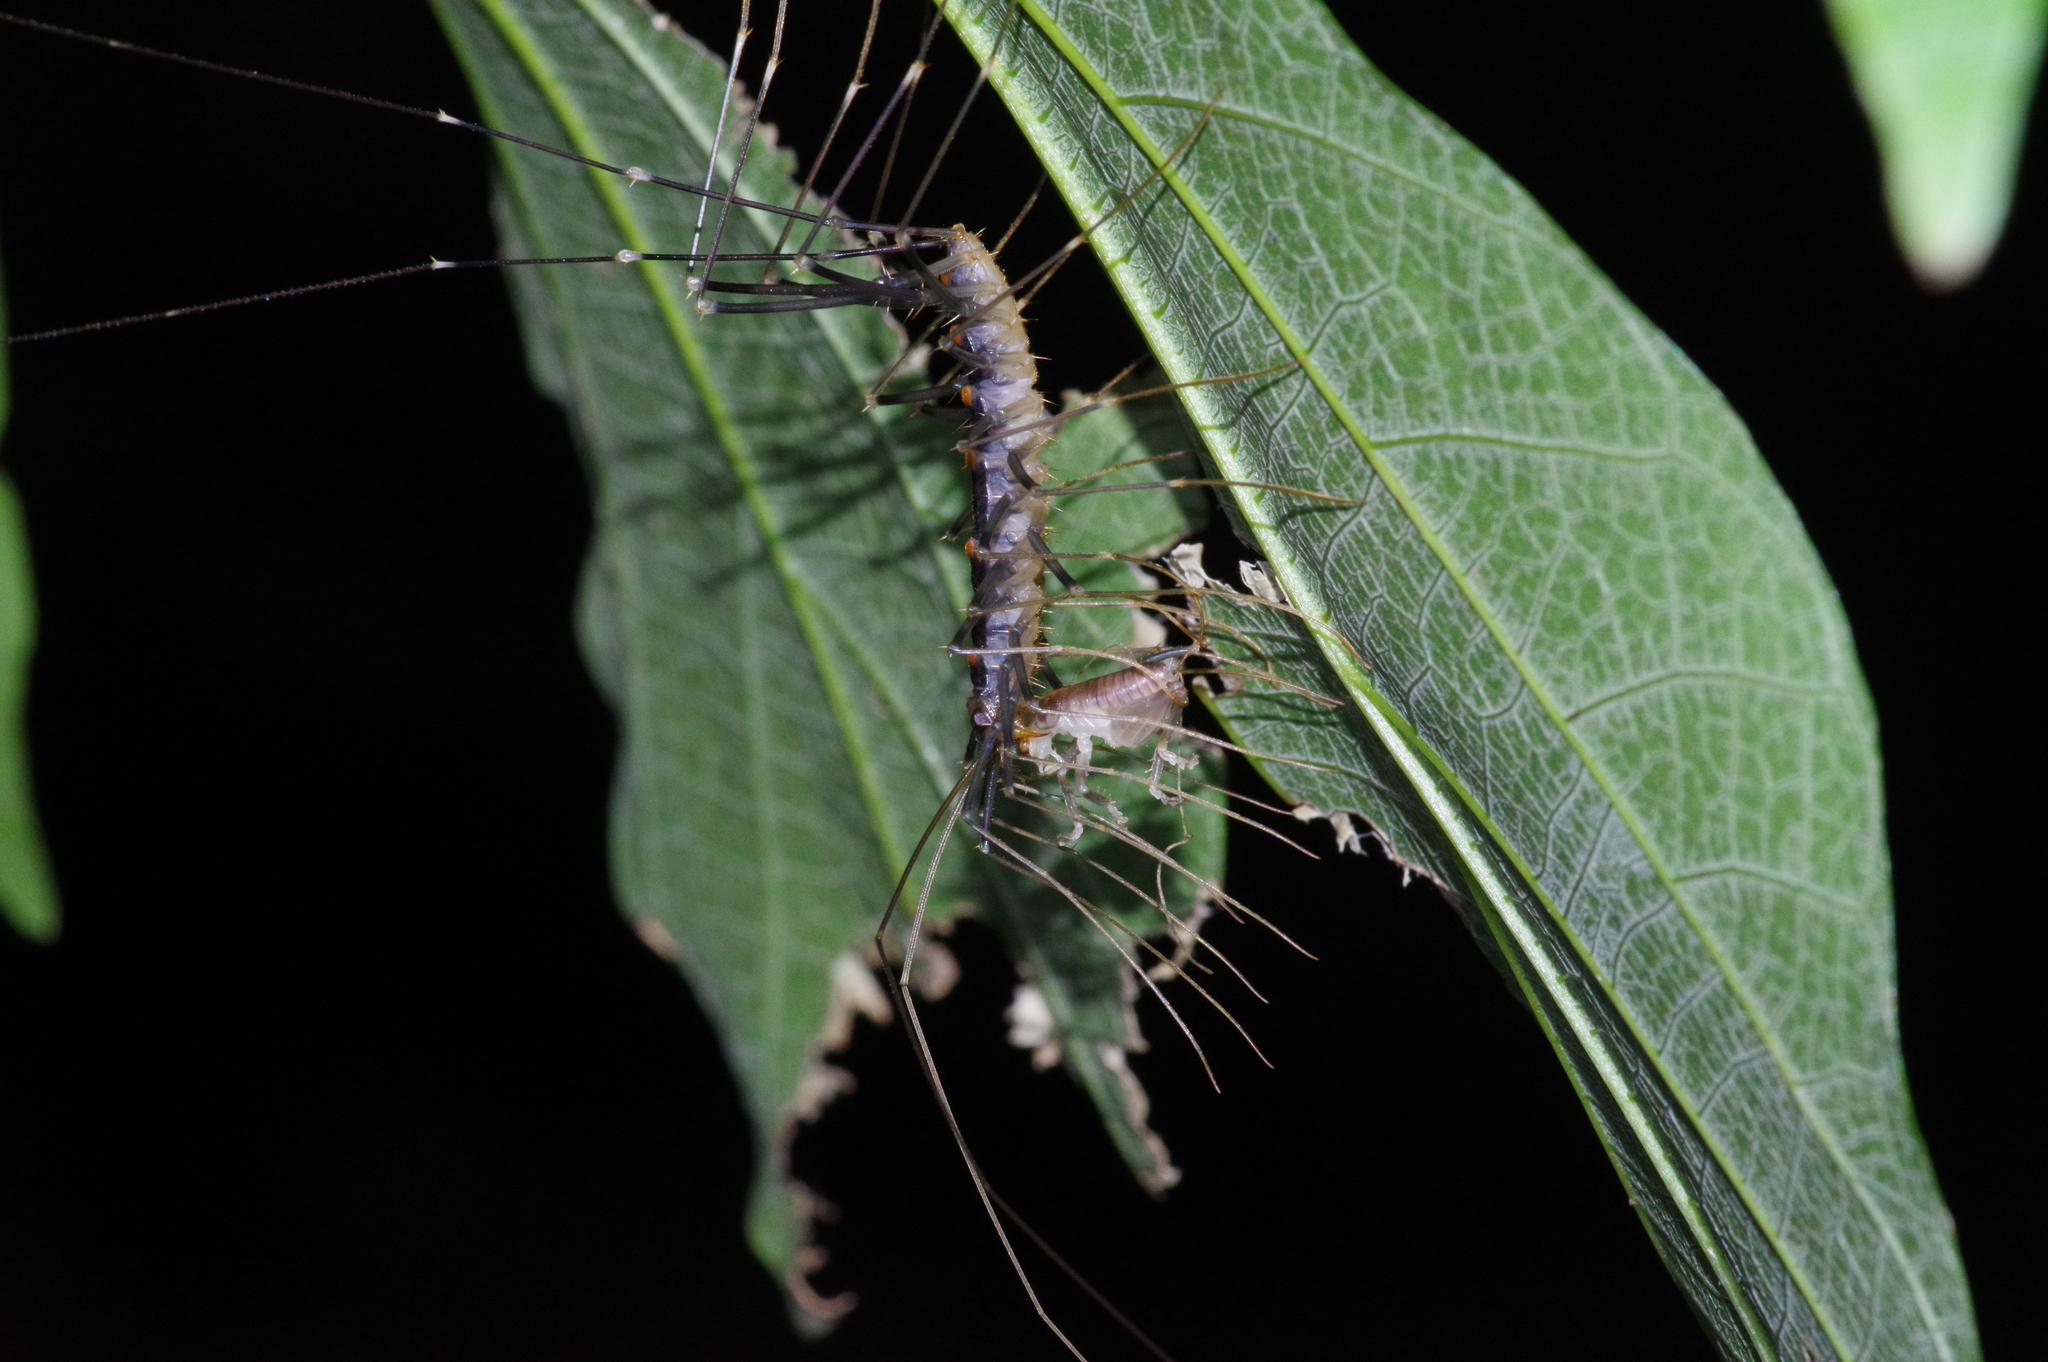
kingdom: Animalia
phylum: Arthropoda
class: Chilopoda
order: Scutigeromorpha
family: Scutigeridae
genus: Thereuopoda
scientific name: Thereuopoda clunifera
